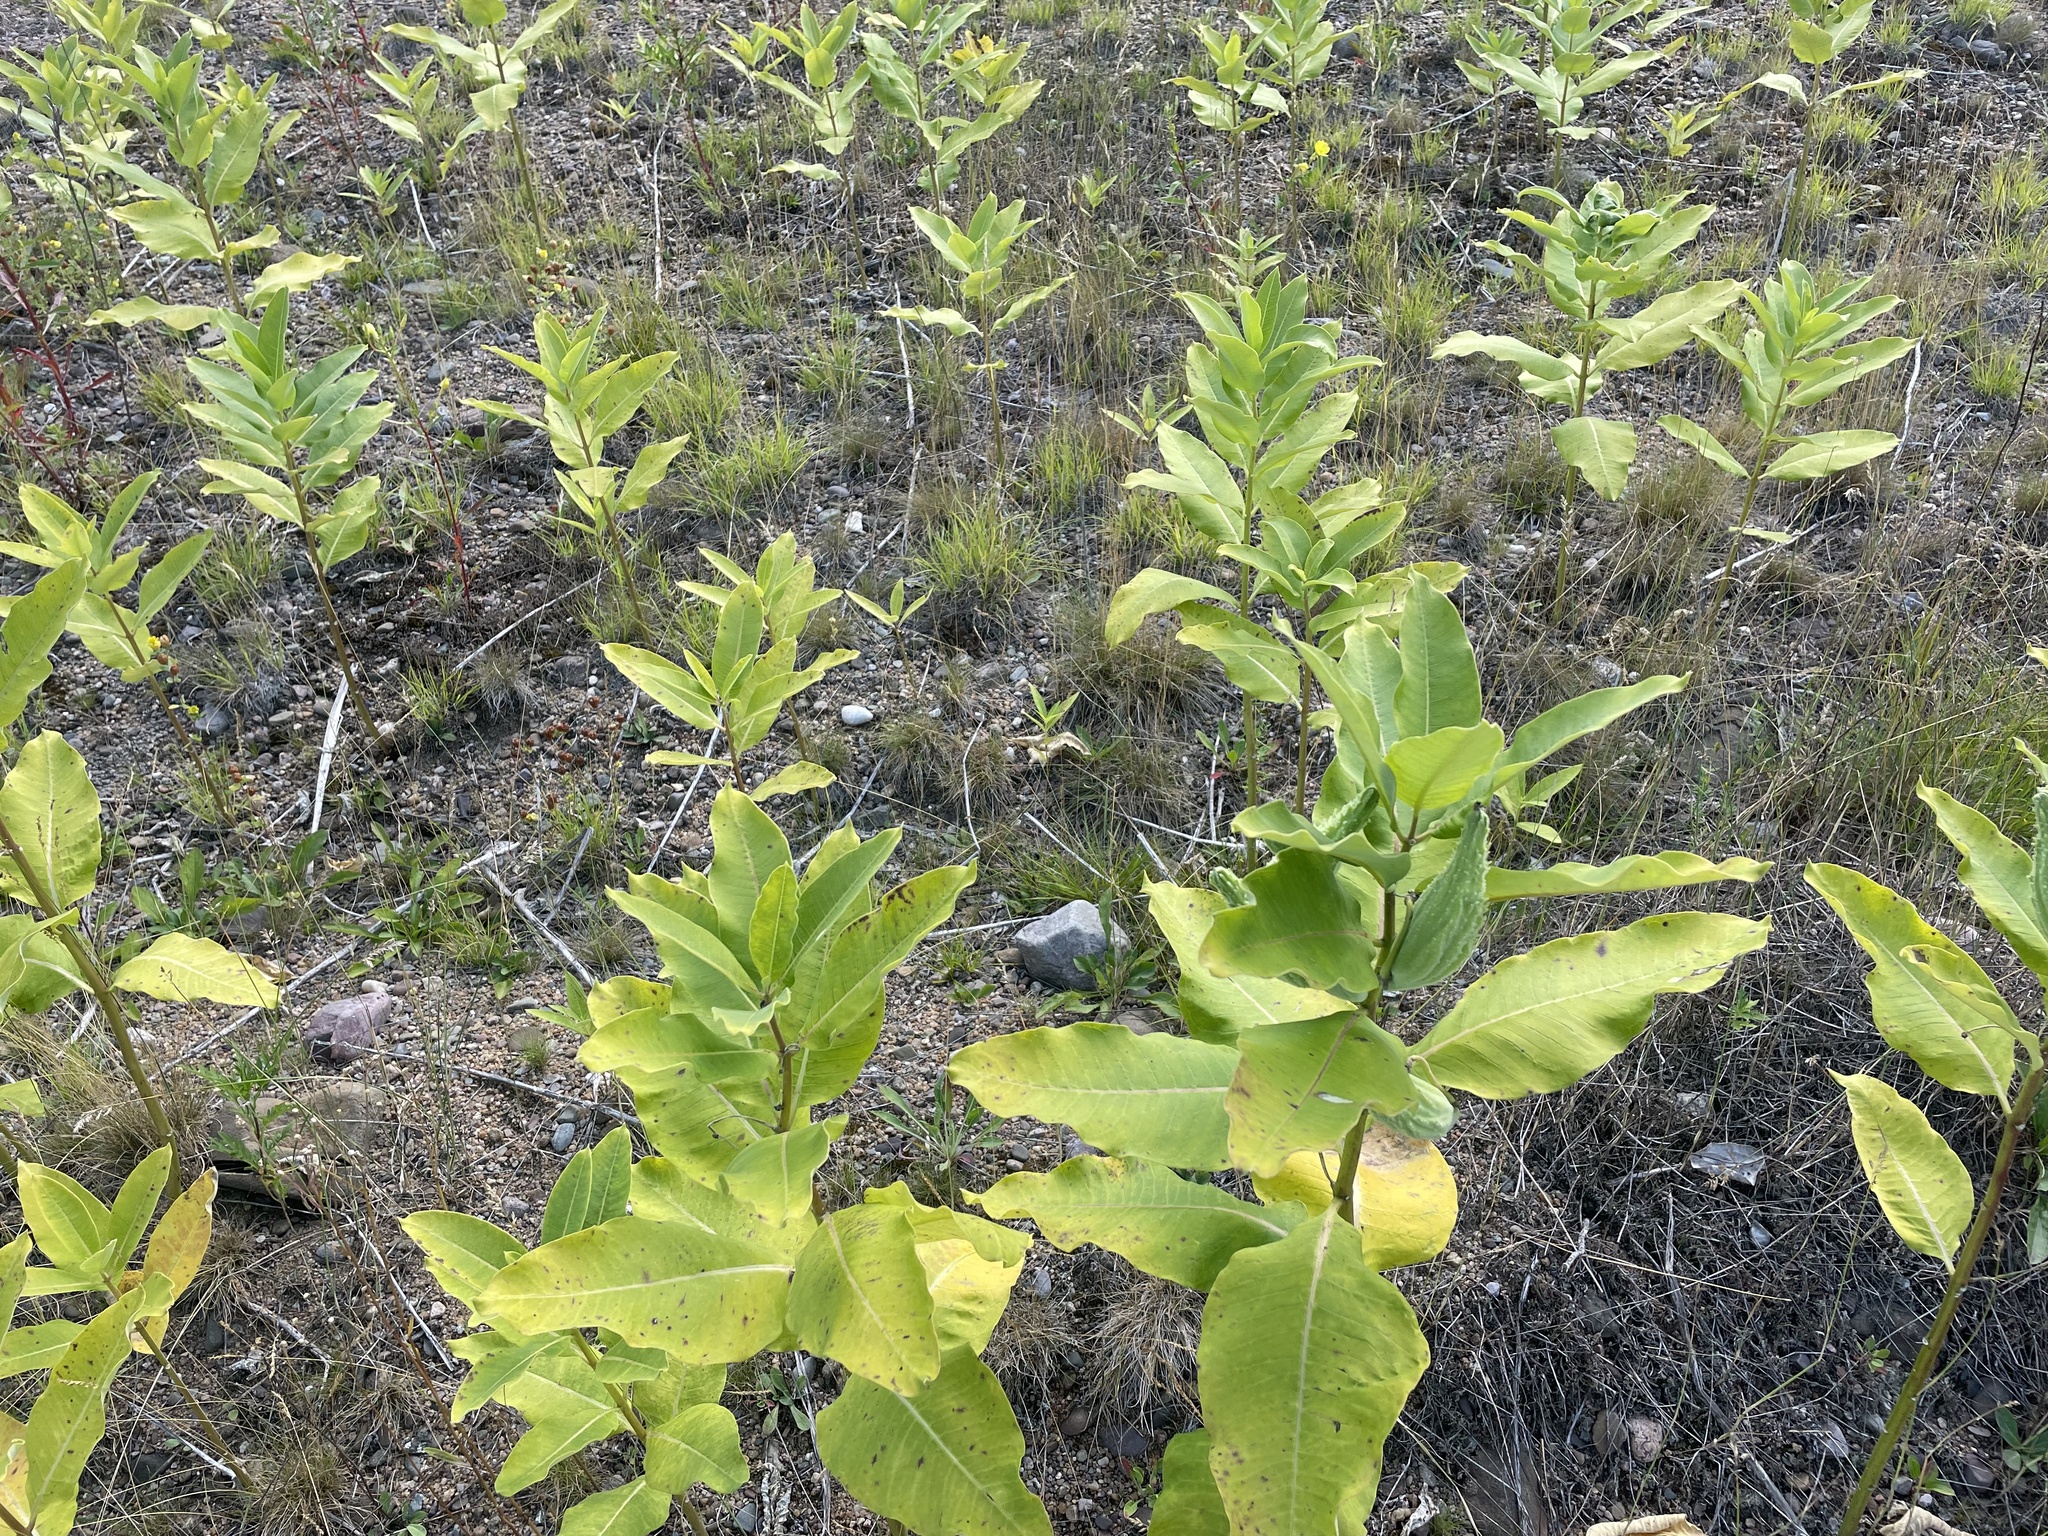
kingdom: Plantae
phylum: Tracheophyta
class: Magnoliopsida
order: Gentianales
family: Apocynaceae
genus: Asclepias
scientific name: Asclepias syriaca
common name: Common milkweed
